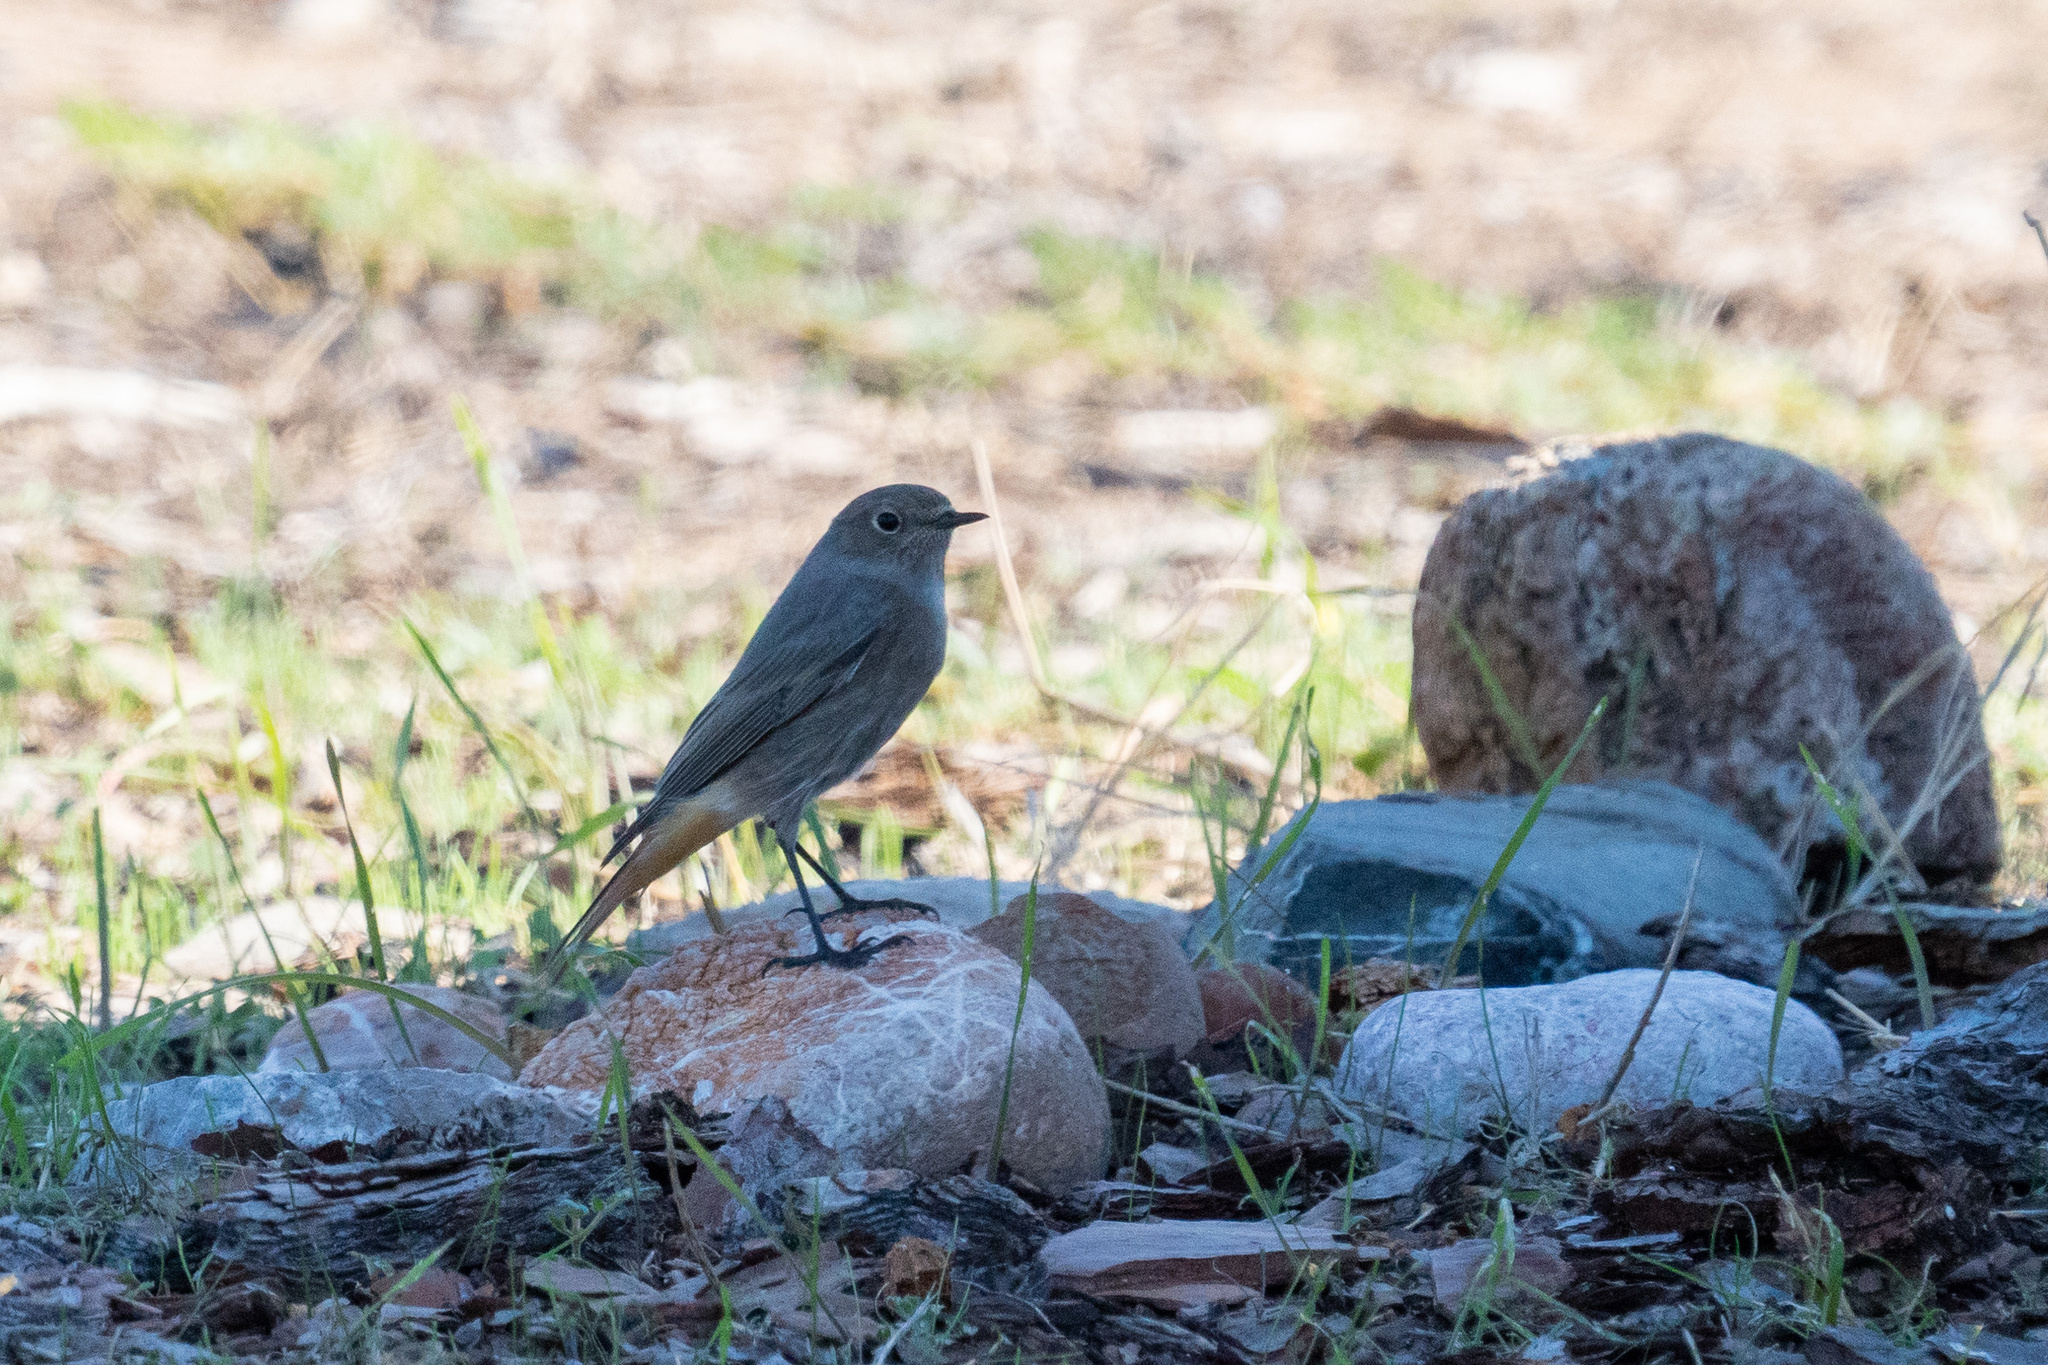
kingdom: Animalia
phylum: Chordata
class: Aves
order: Passeriformes
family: Muscicapidae
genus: Phoenicurus
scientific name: Phoenicurus ochruros
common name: Black redstart
